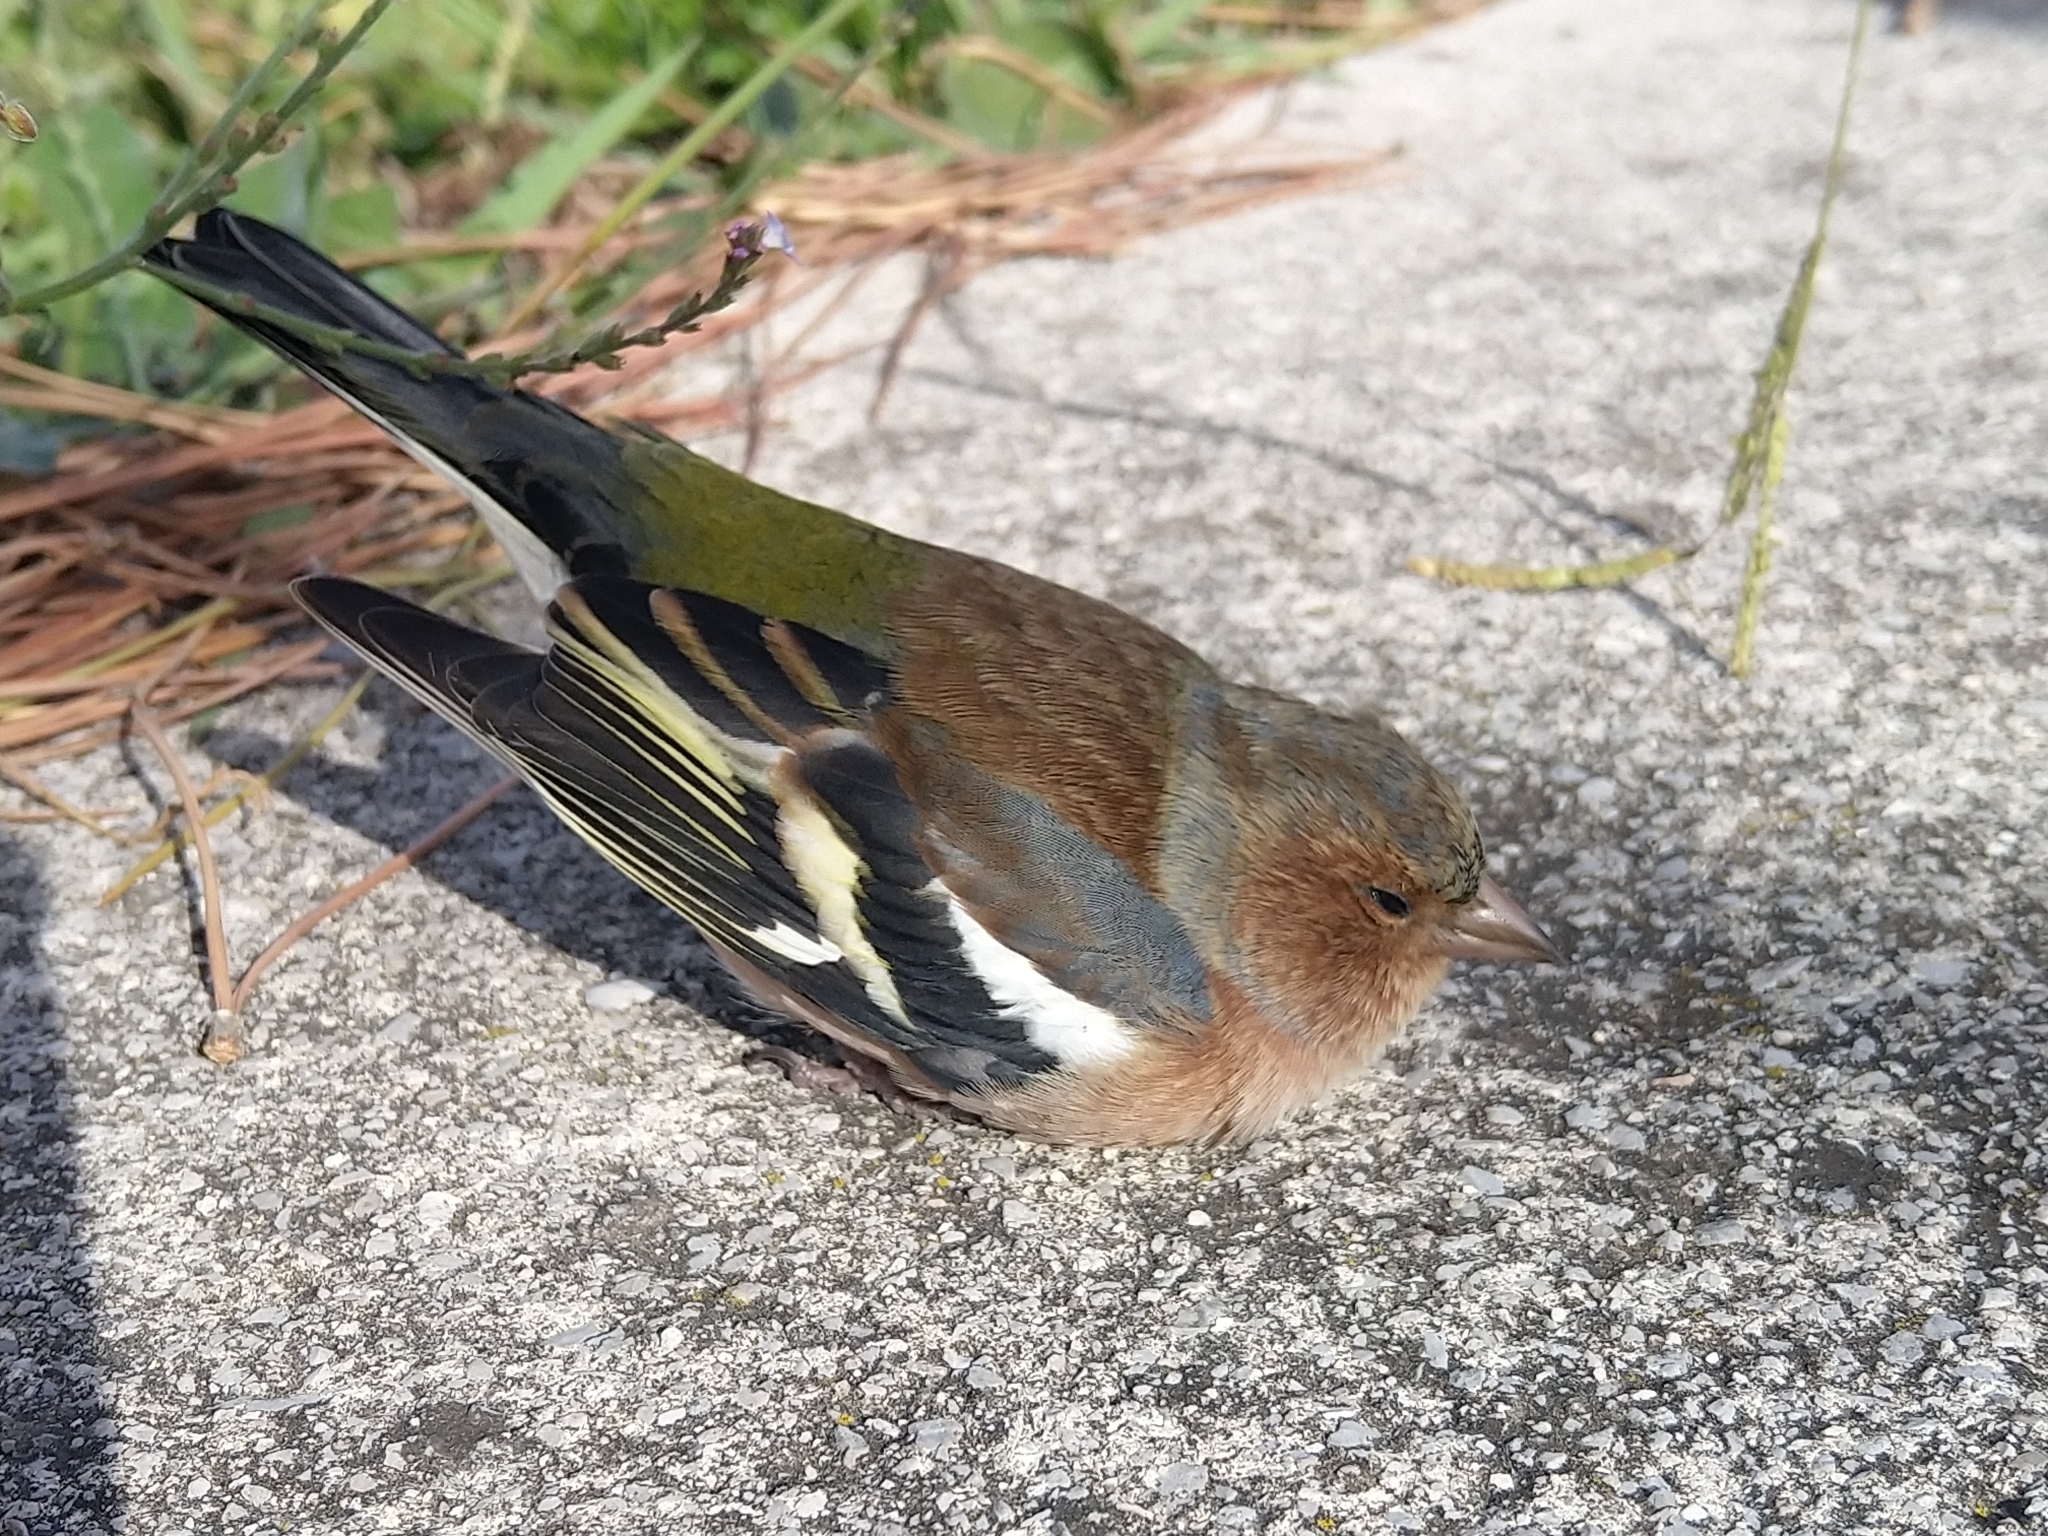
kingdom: Animalia
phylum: Chordata
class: Aves
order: Passeriformes
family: Fringillidae
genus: Fringilla
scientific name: Fringilla coelebs
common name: Common chaffinch
